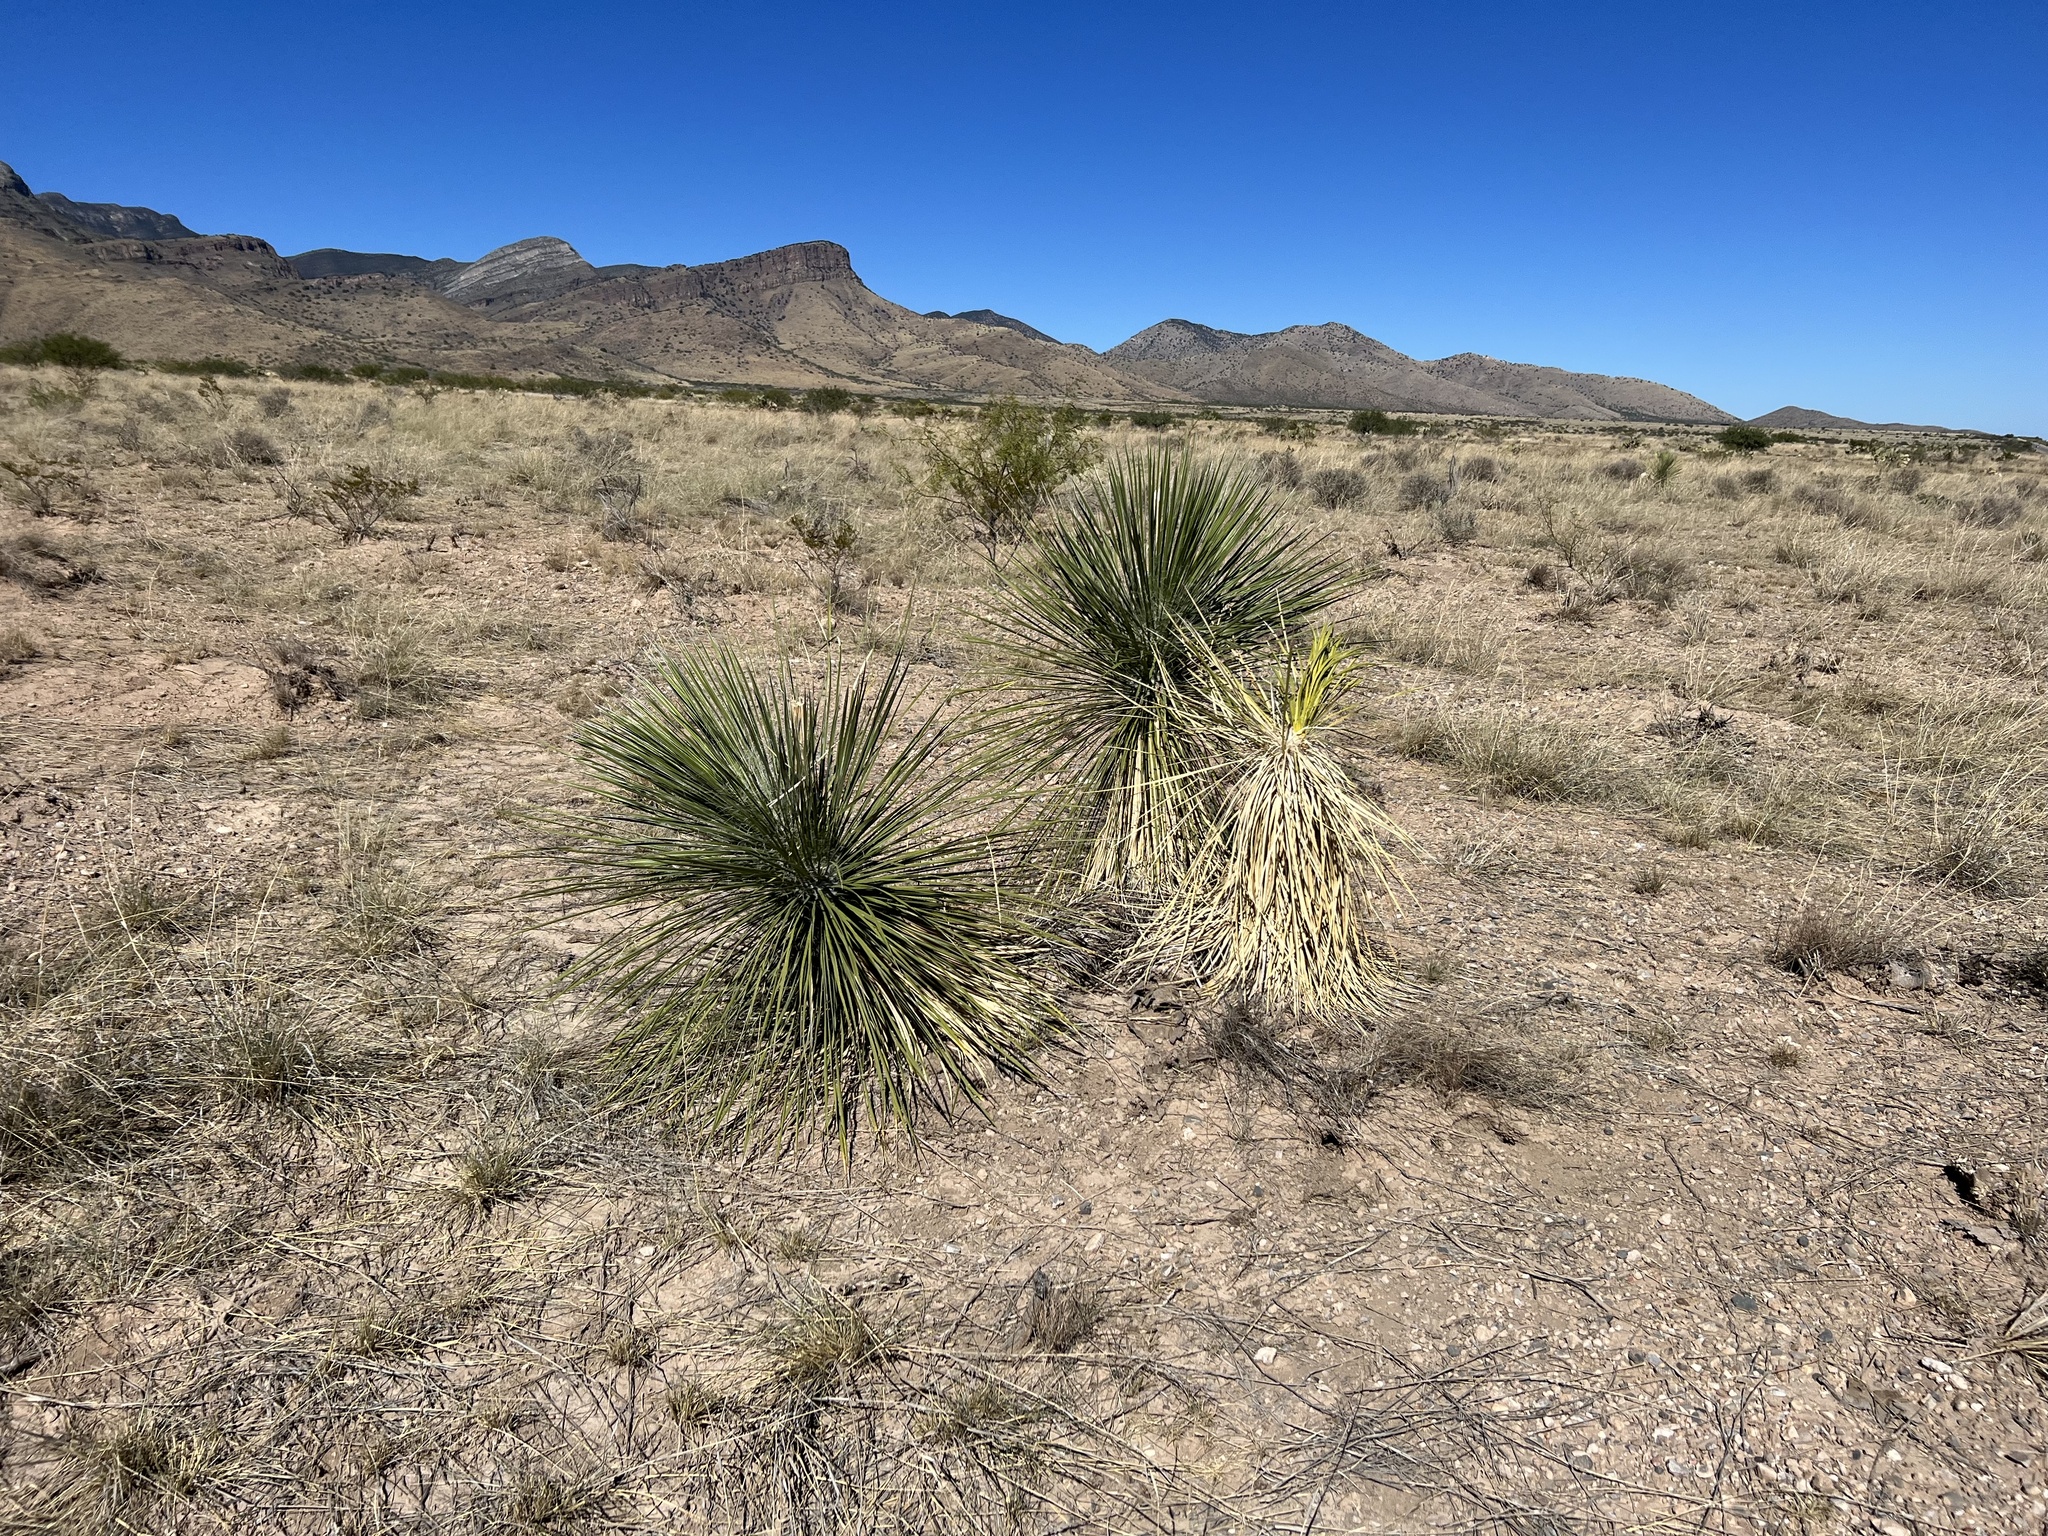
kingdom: Plantae
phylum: Tracheophyta
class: Liliopsida
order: Asparagales
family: Asparagaceae
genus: Yucca
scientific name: Yucca elata
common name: Palmella
